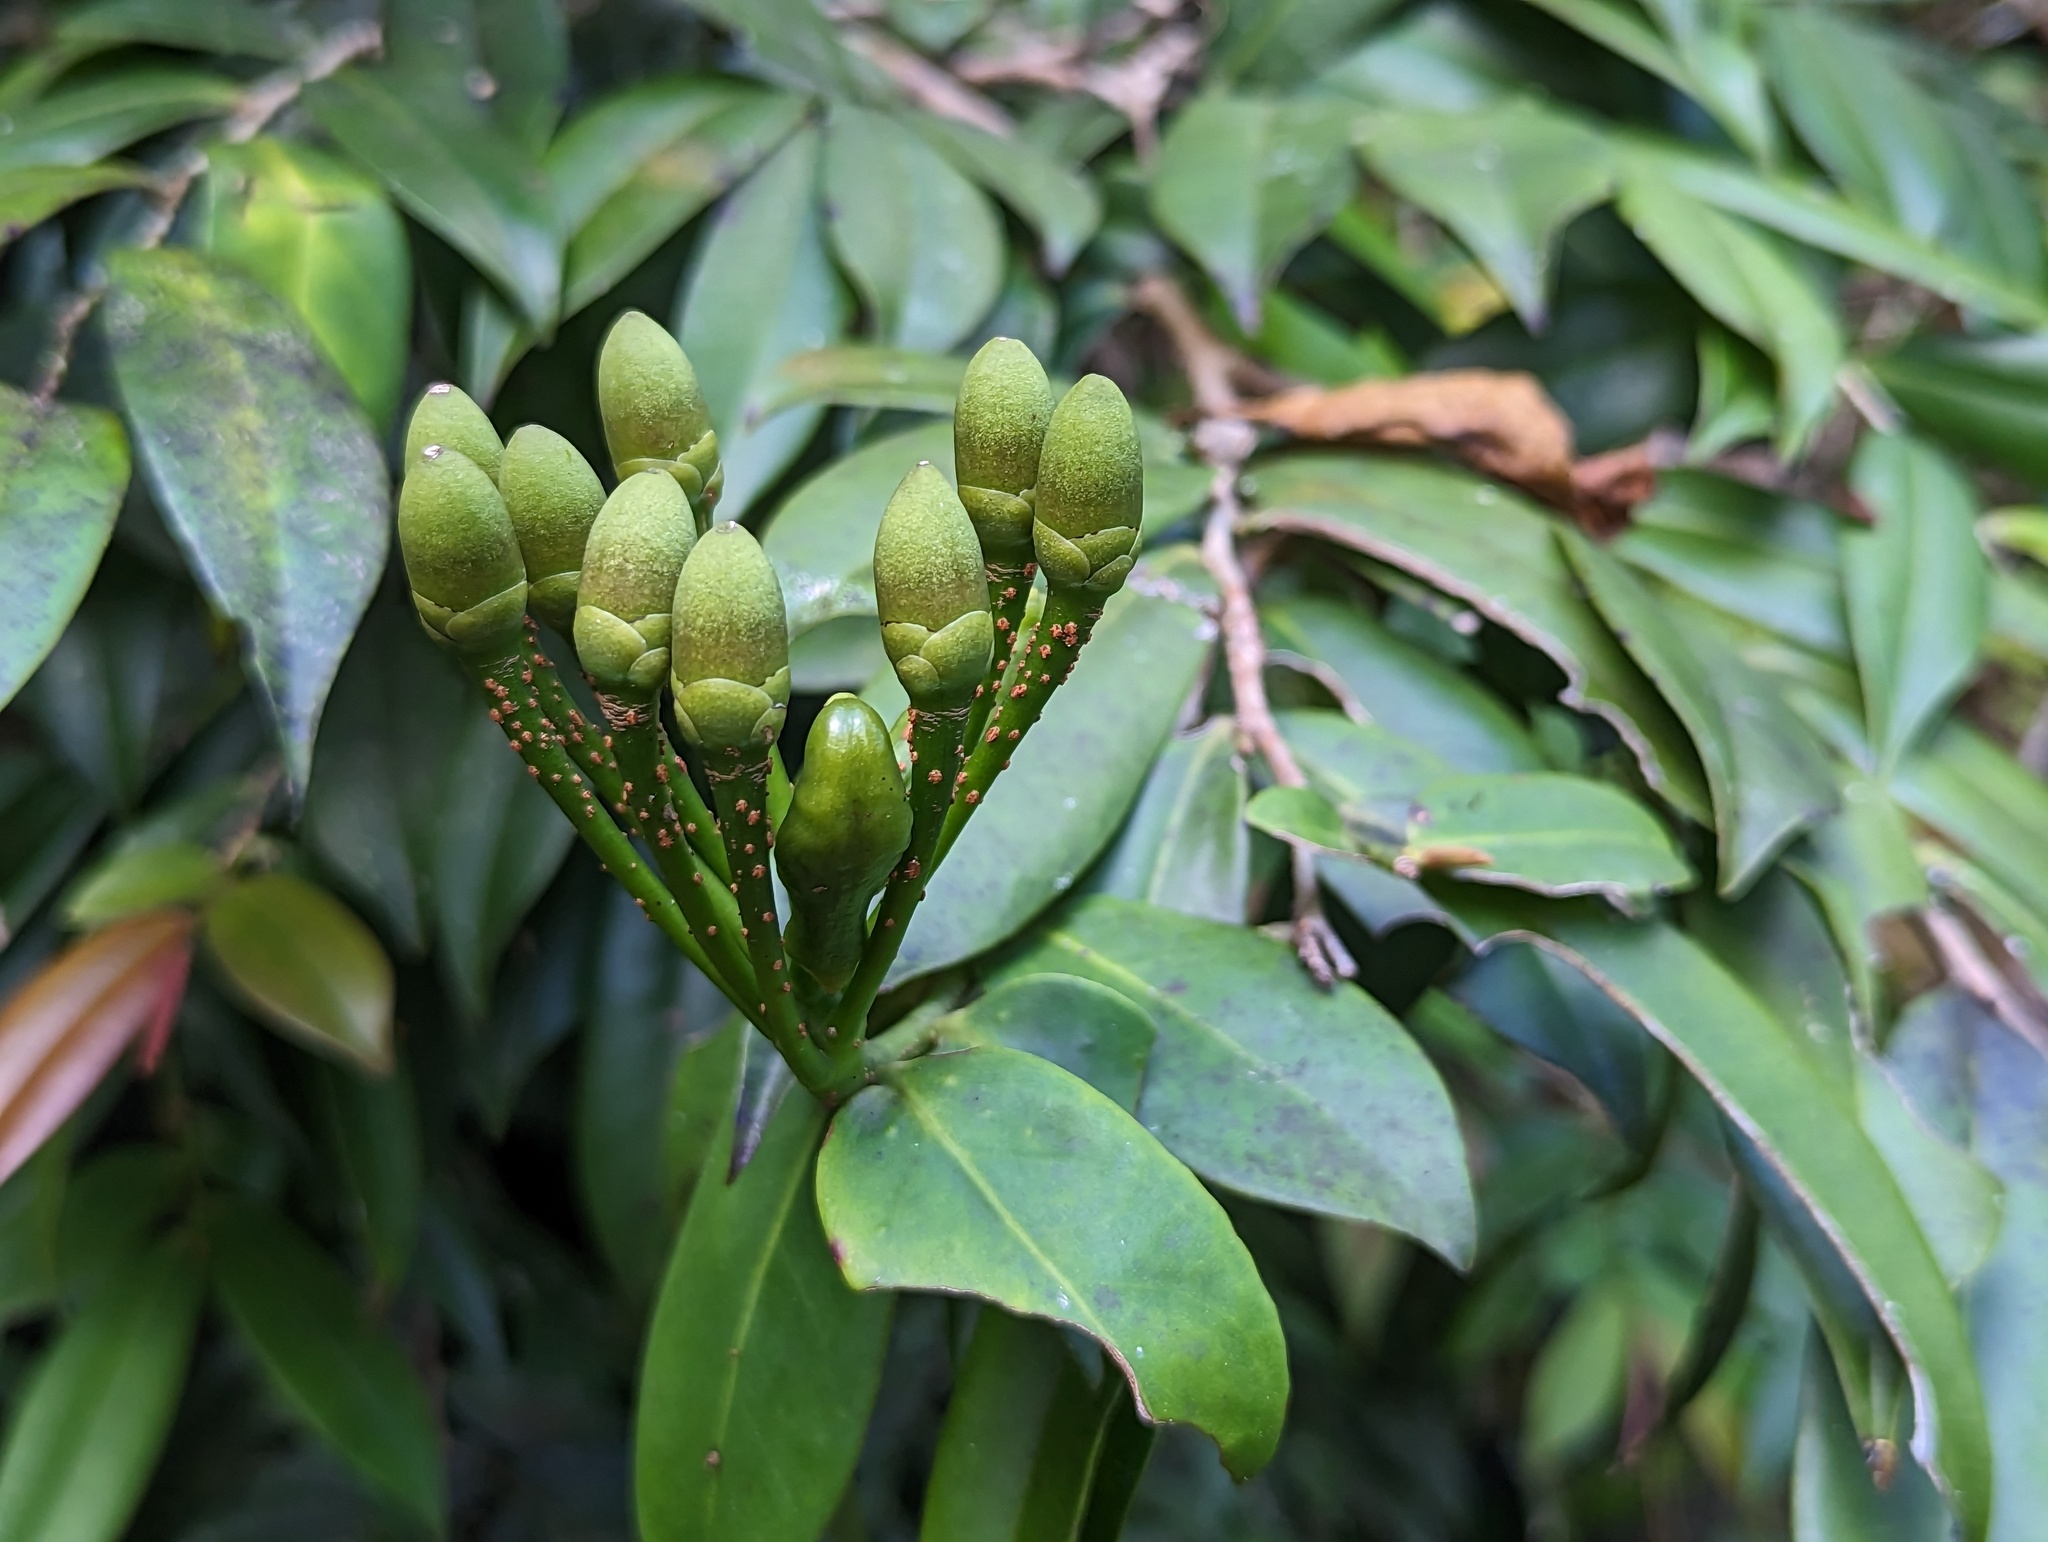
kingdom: Plantae
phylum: Tracheophyta
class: Magnoliopsida
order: Ericales
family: Marcgraviaceae
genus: Marcgravia
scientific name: Marcgravia rectiflora
